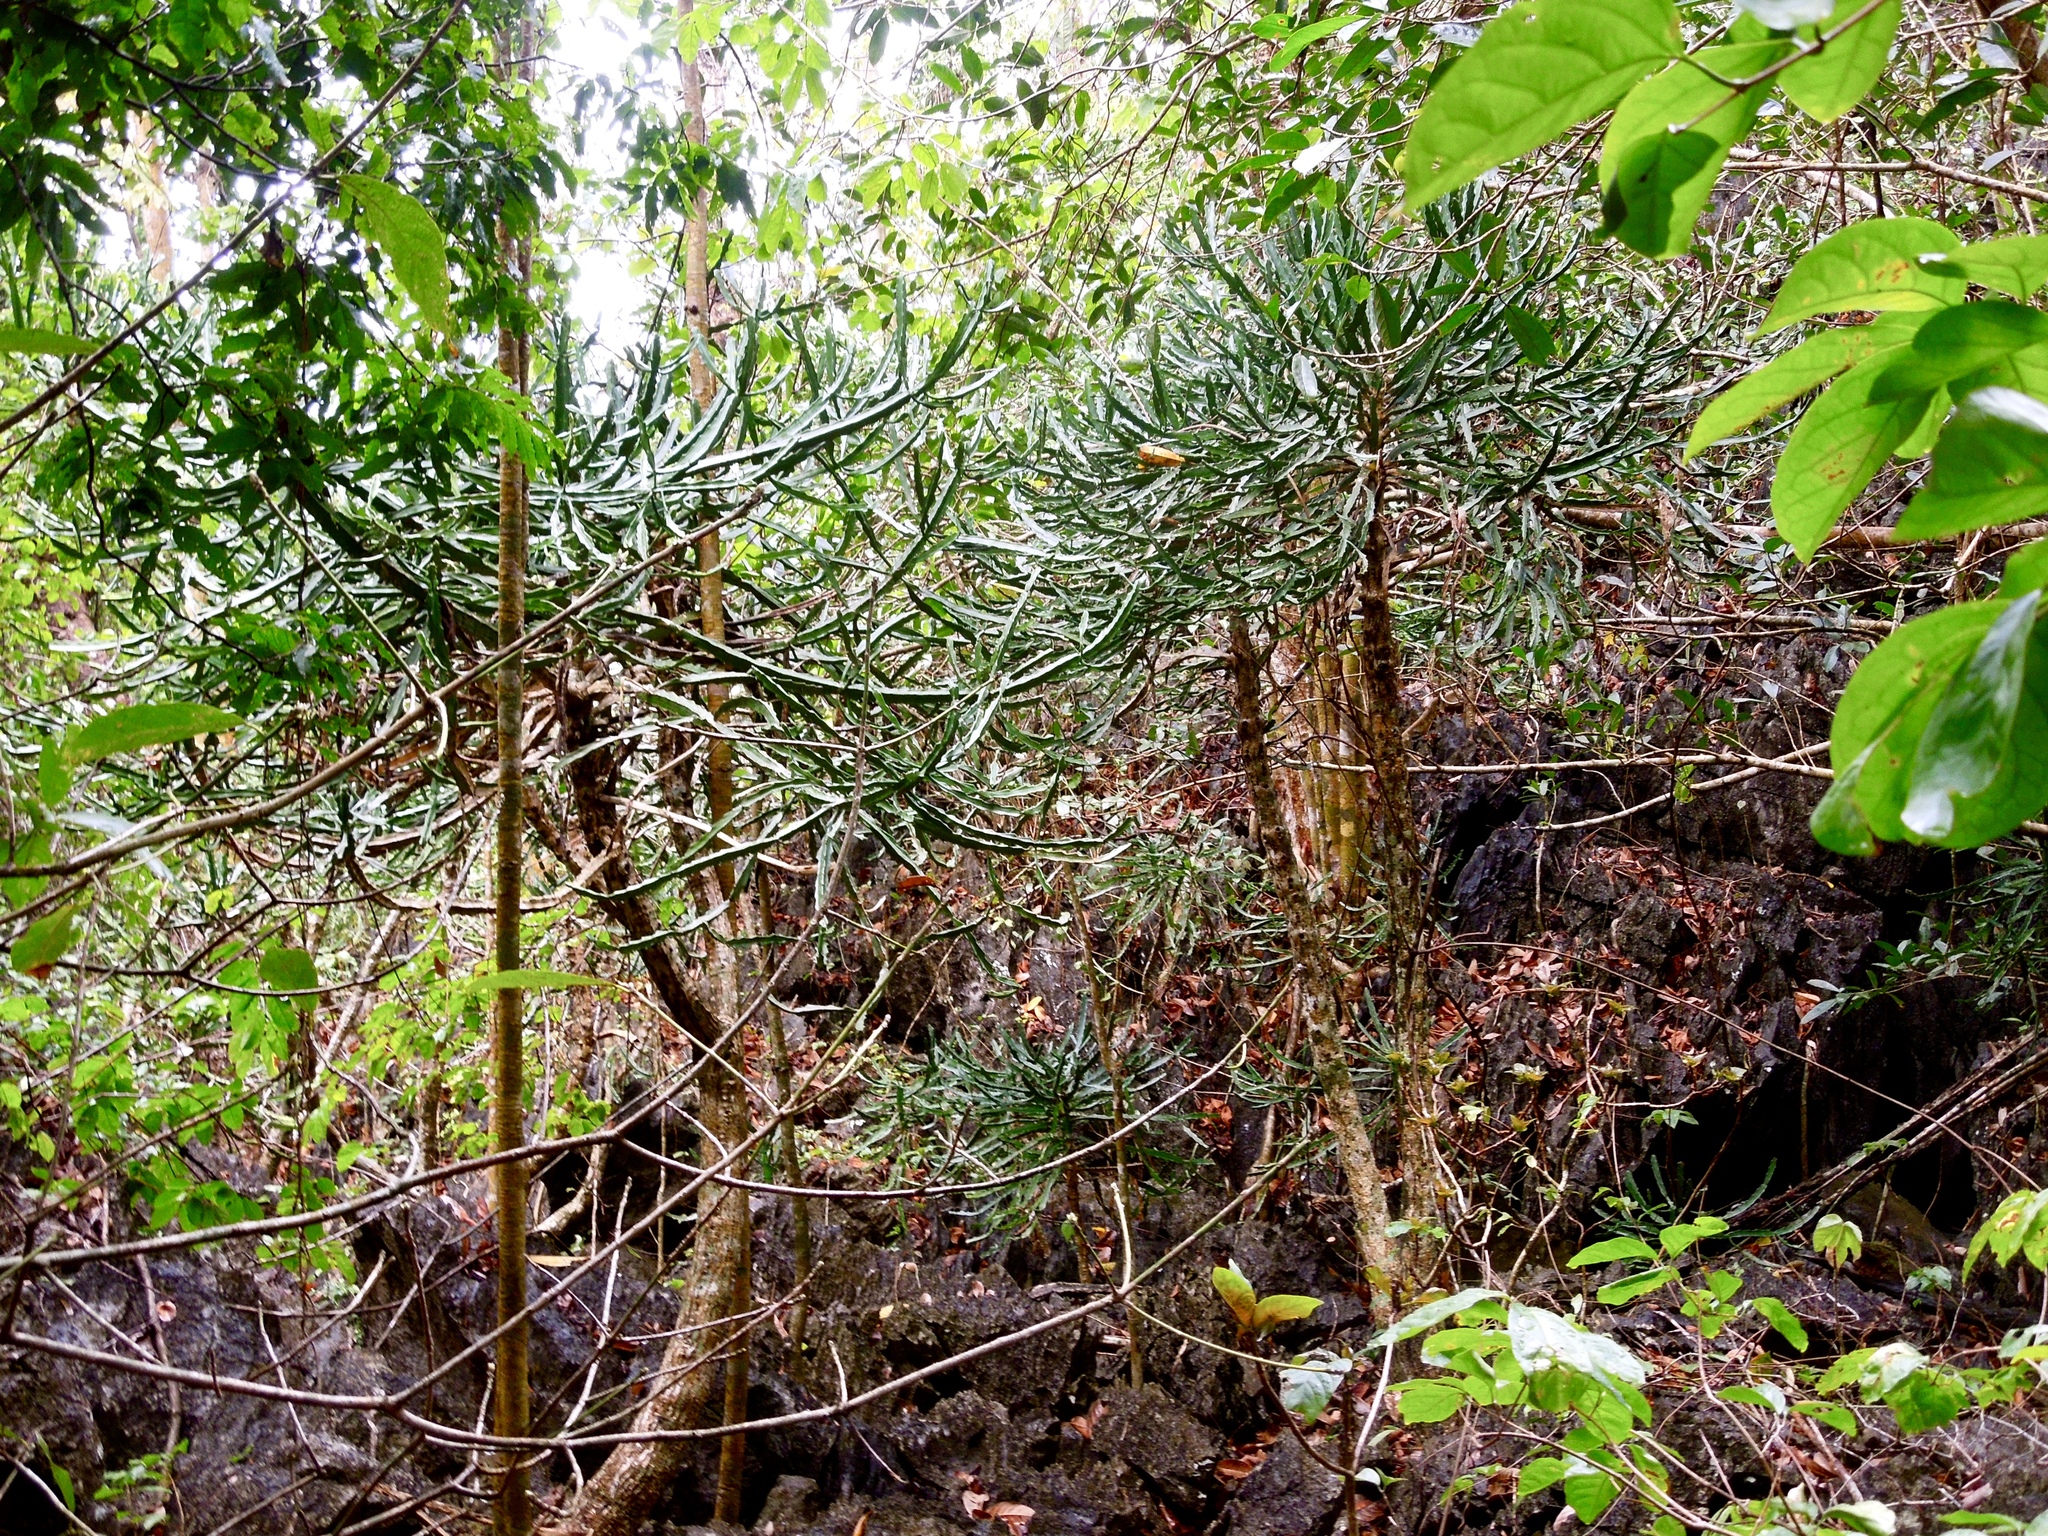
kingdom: Plantae
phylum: Tracheophyta
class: Magnoliopsida
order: Malpighiales
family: Euphorbiaceae
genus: Euphorbia
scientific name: Euphorbia lacei
